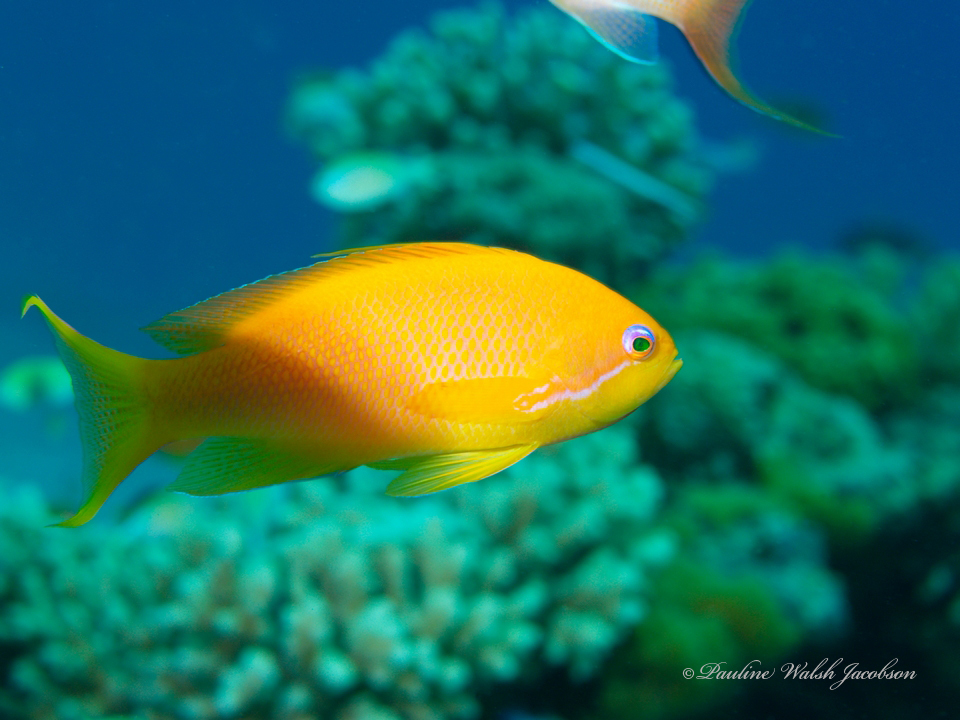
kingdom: Animalia
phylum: Chordata
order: Perciformes
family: Serranidae
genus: Pseudanthias
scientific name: Pseudanthias squamipinnis
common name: Scalefin anthias
